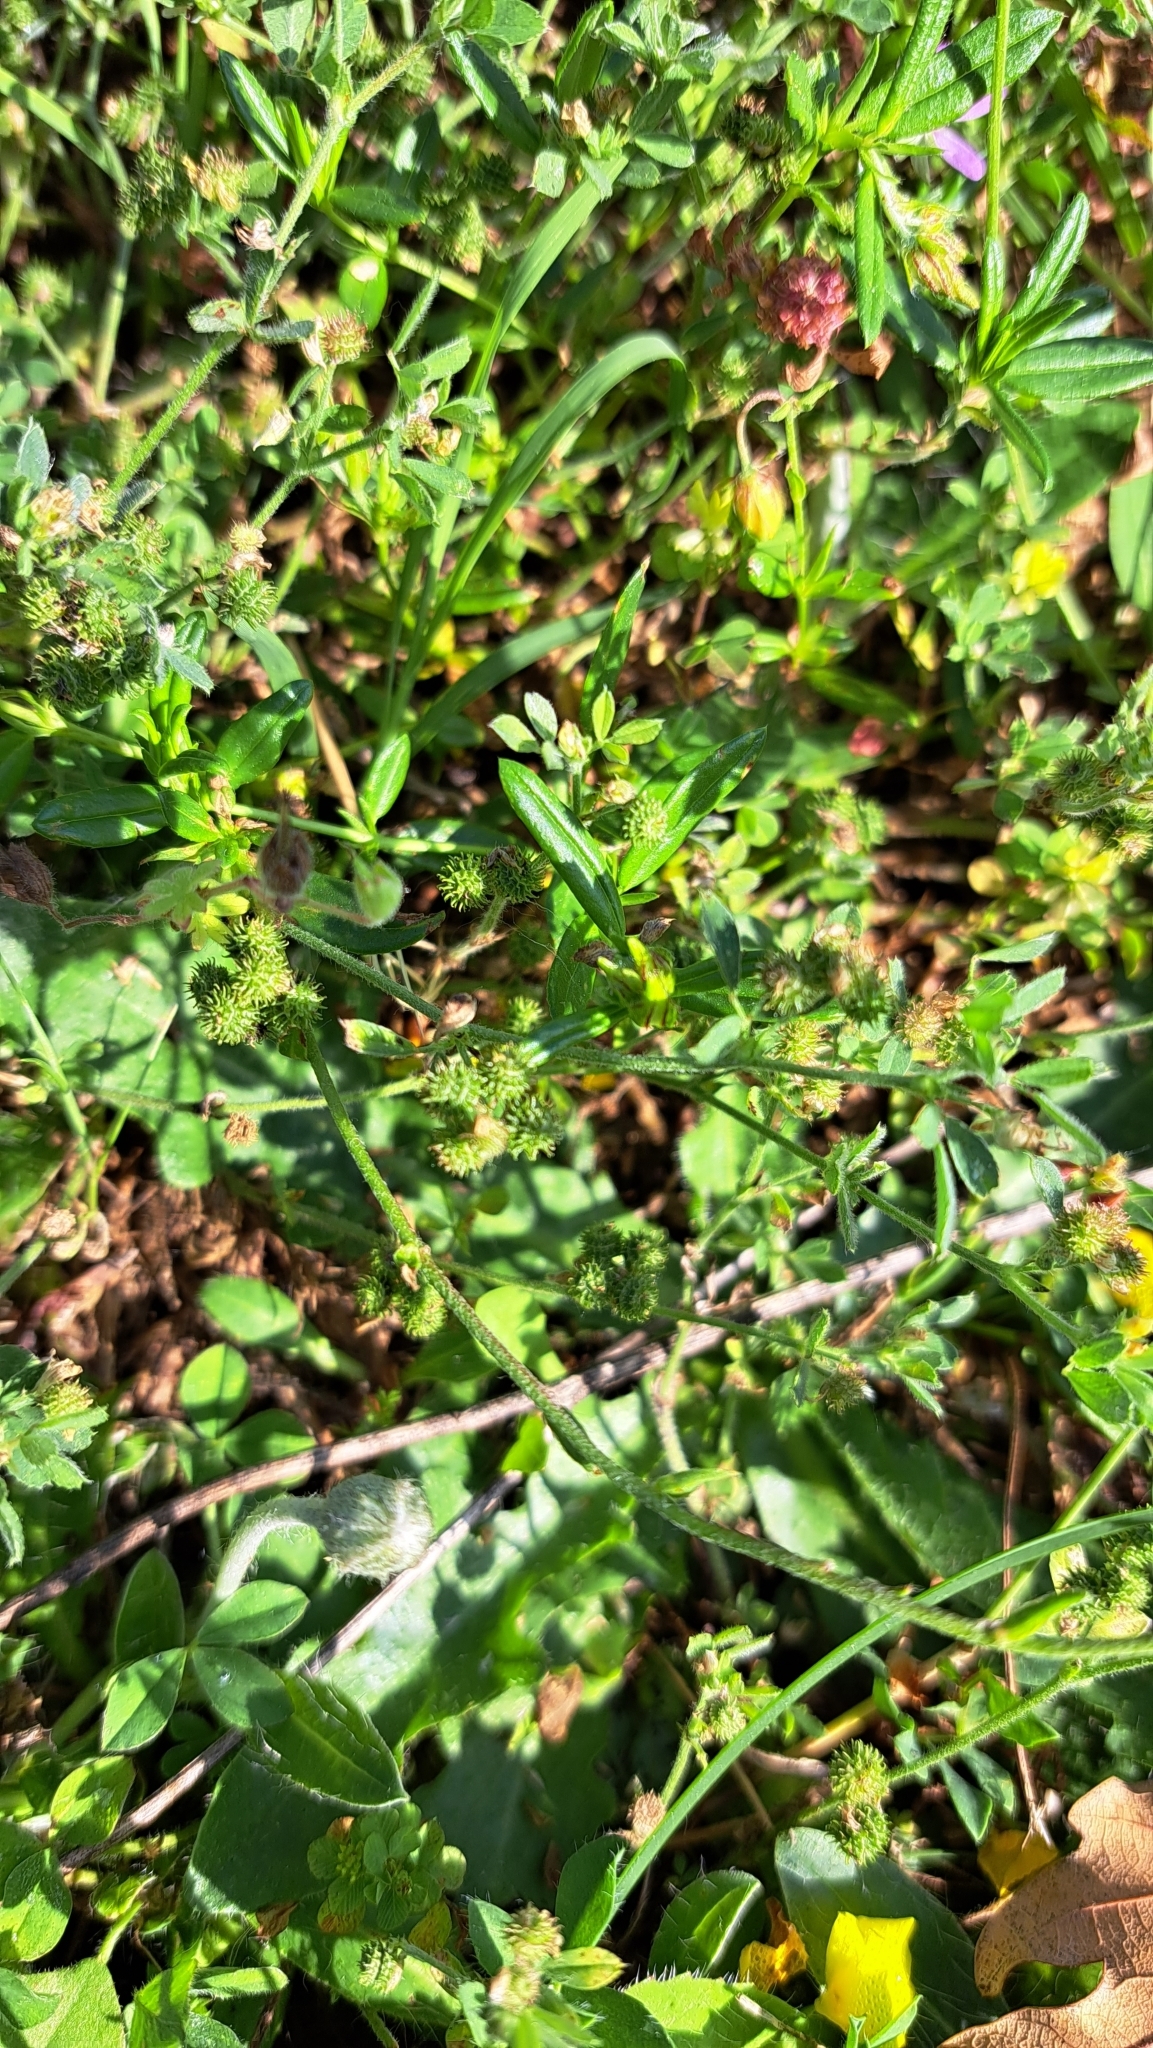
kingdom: Plantae
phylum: Tracheophyta
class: Magnoliopsida
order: Malvales
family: Cistaceae
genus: Helianthemum
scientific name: Helianthemum nummularium
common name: Common rock-rose
